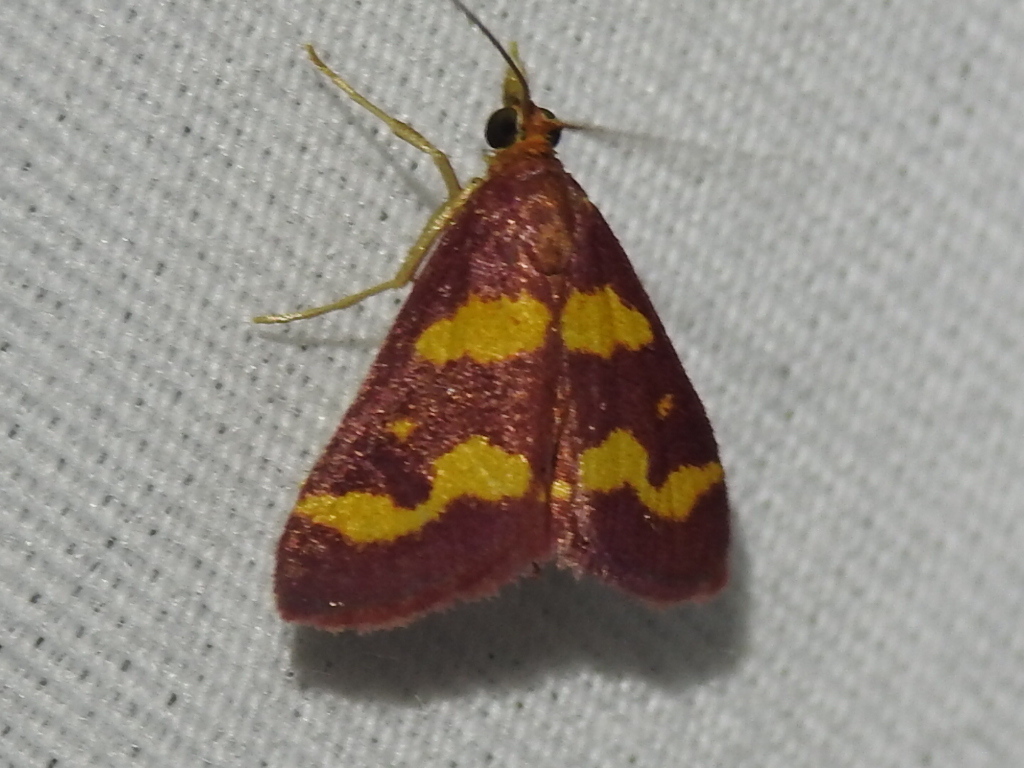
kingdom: Animalia
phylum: Arthropoda
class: Insecta
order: Lepidoptera
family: Crambidae
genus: Pyrausta
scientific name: Pyrausta tyralis
